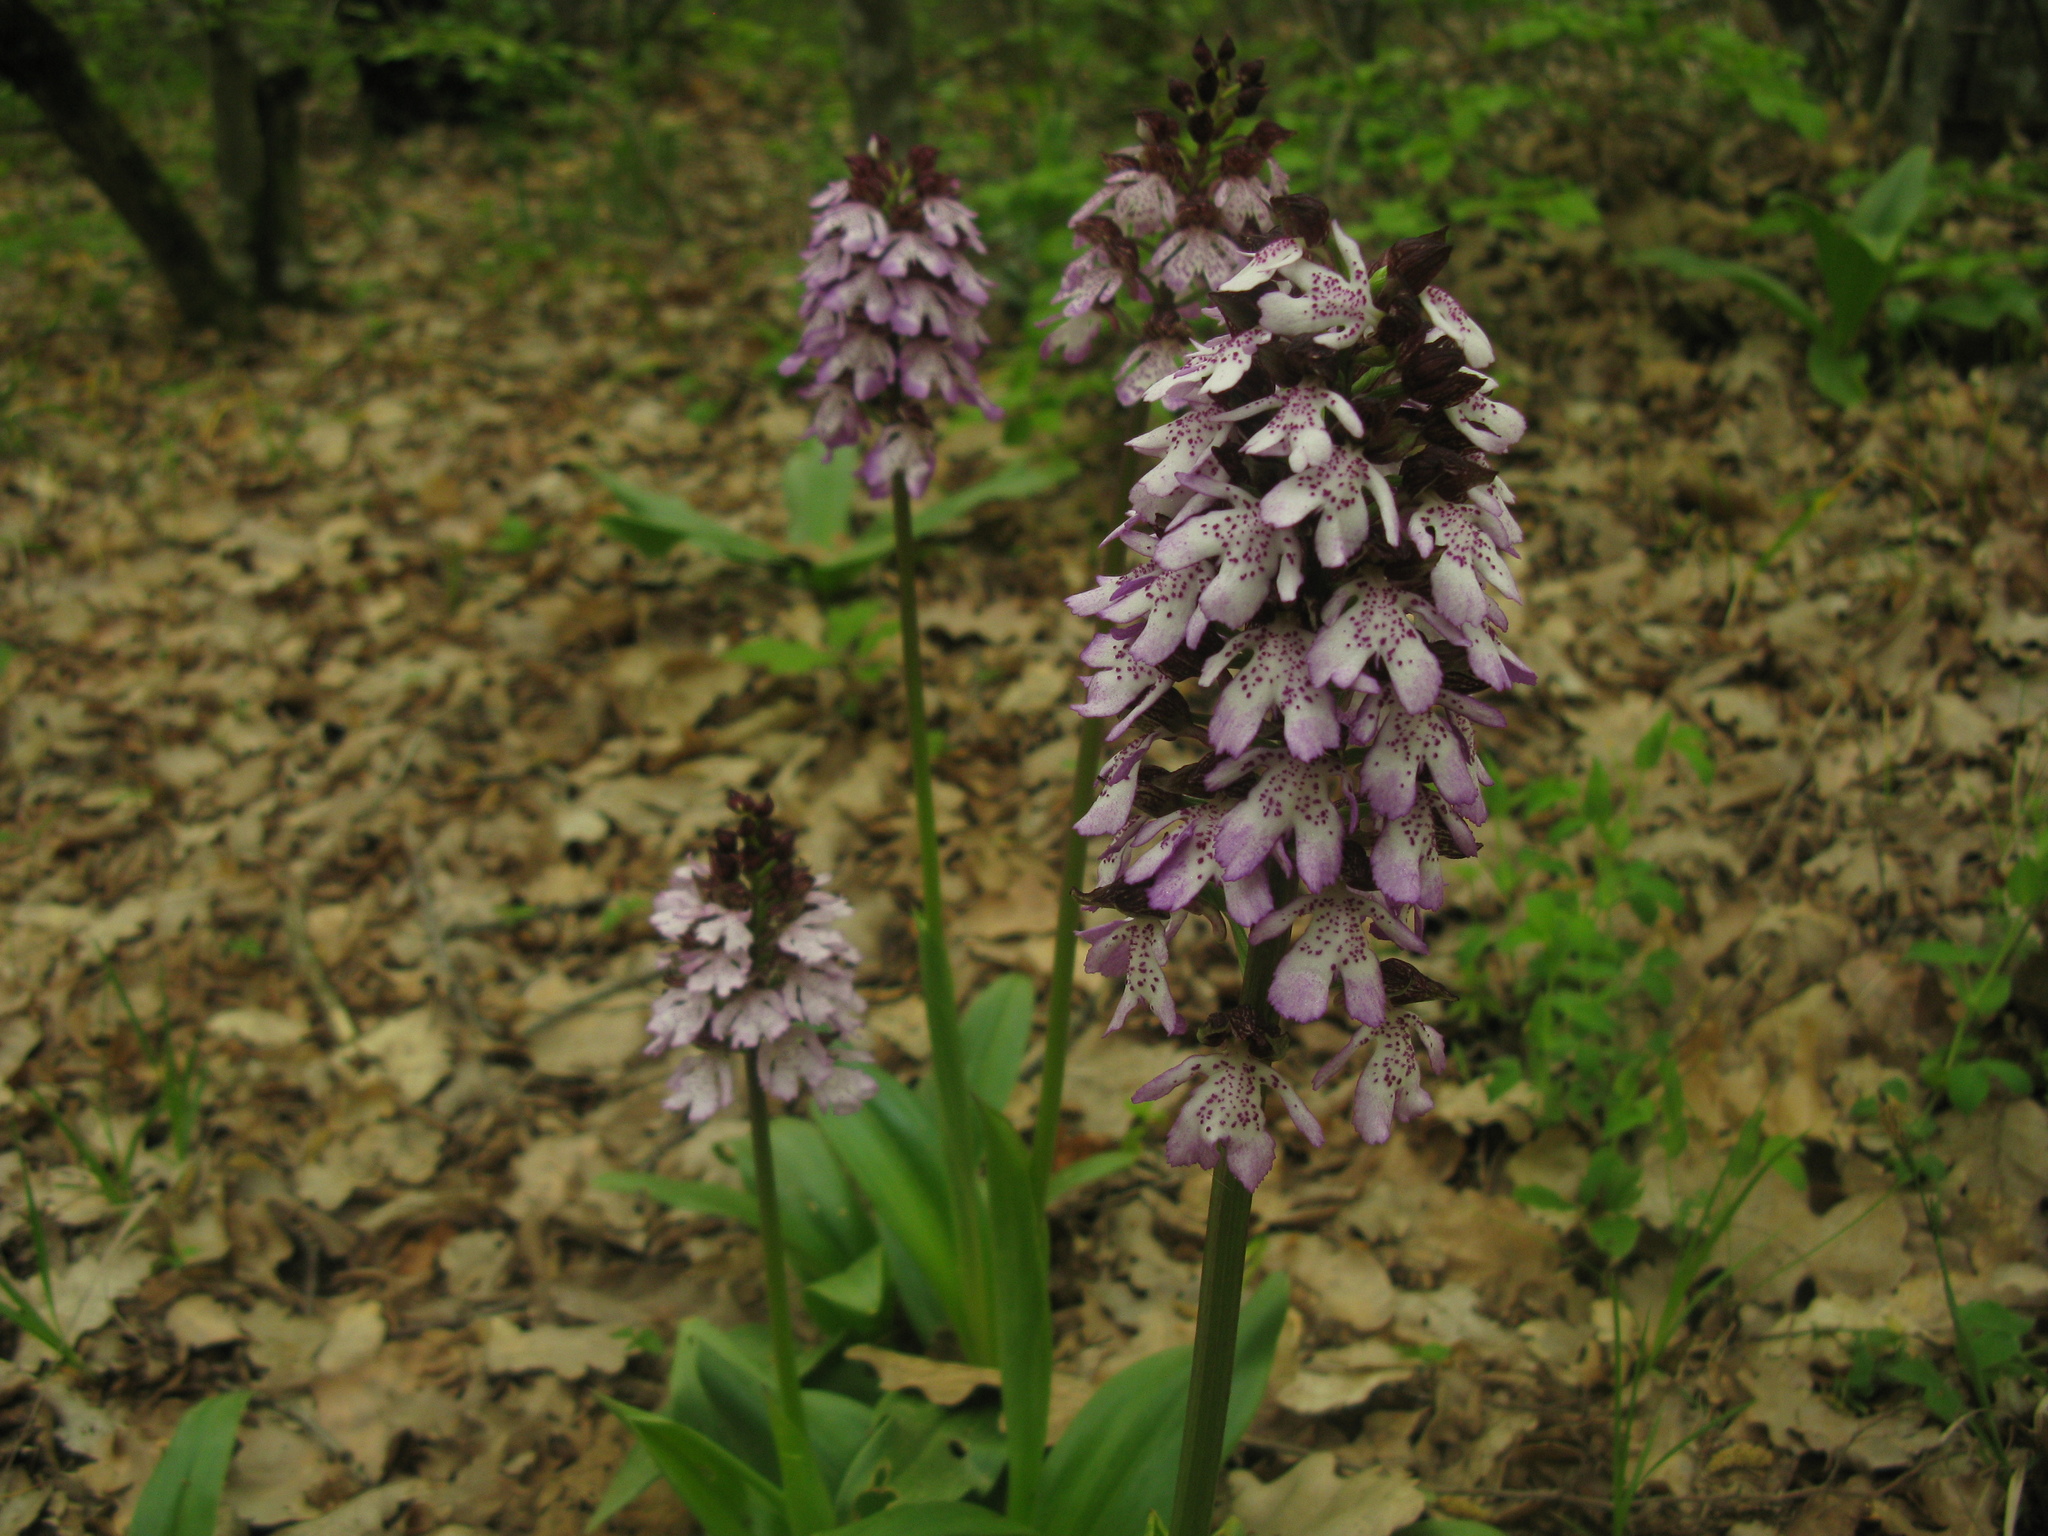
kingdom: Plantae
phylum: Tracheophyta
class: Liliopsida
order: Asparagales
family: Orchidaceae
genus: Orchis
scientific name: Orchis purpurea
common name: Lady orchid
